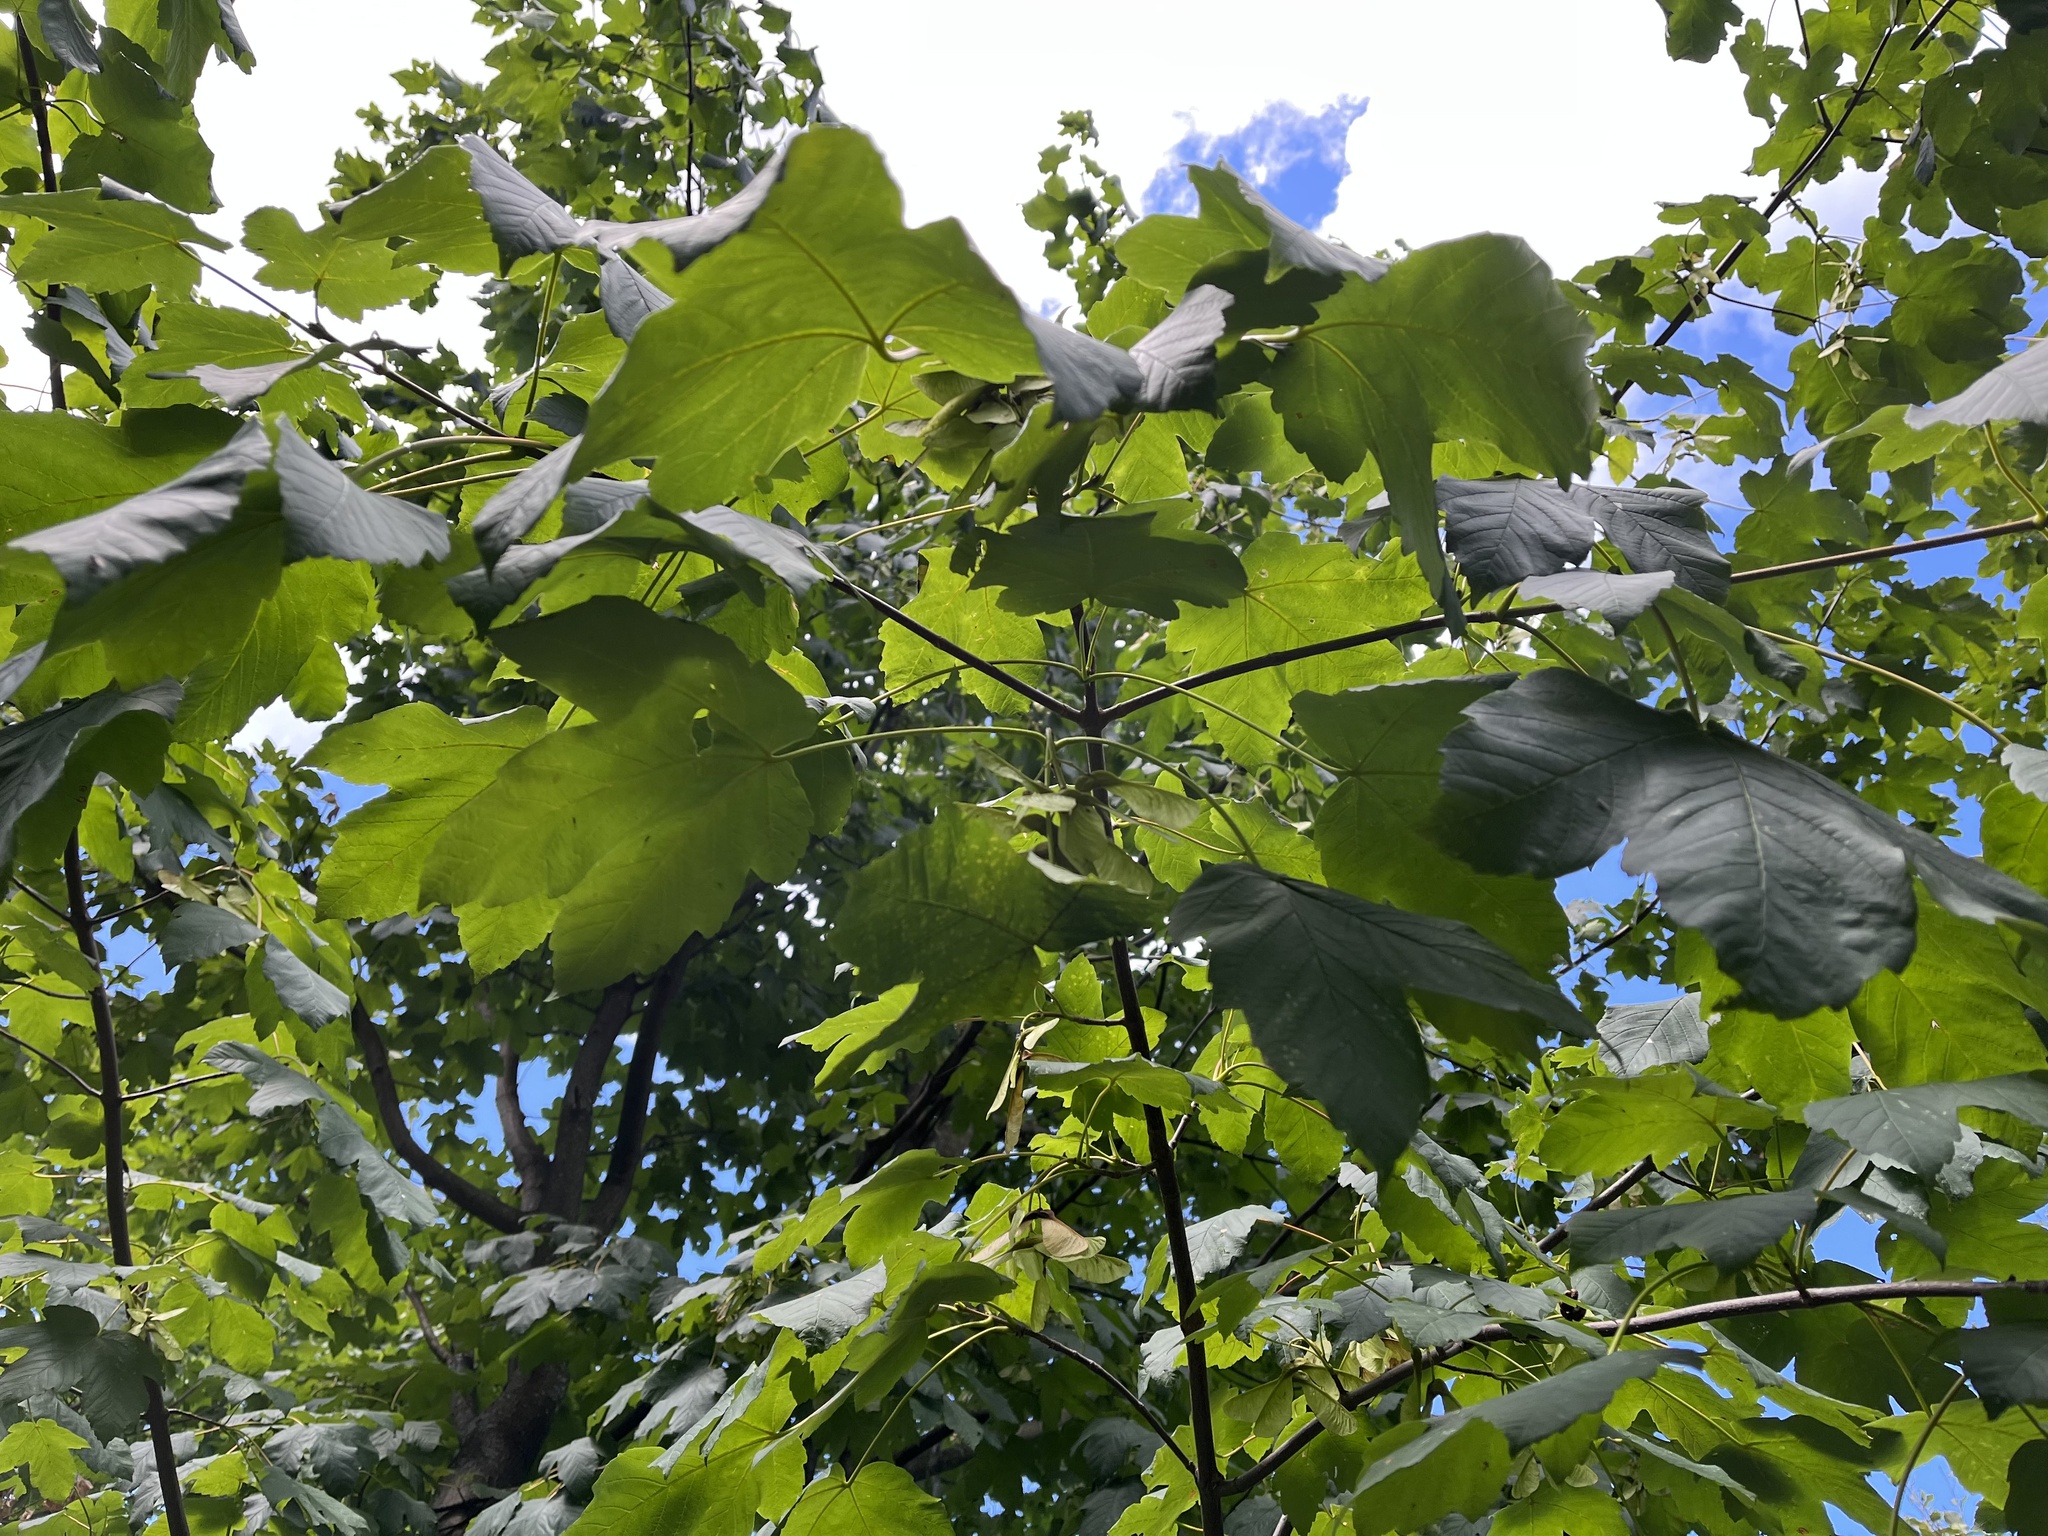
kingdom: Plantae
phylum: Tracheophyta
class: Magnoliopsida
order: Sapindales
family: Sapindaceae
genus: Acer
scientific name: Acer pseudoplatanus
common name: Sycamore
